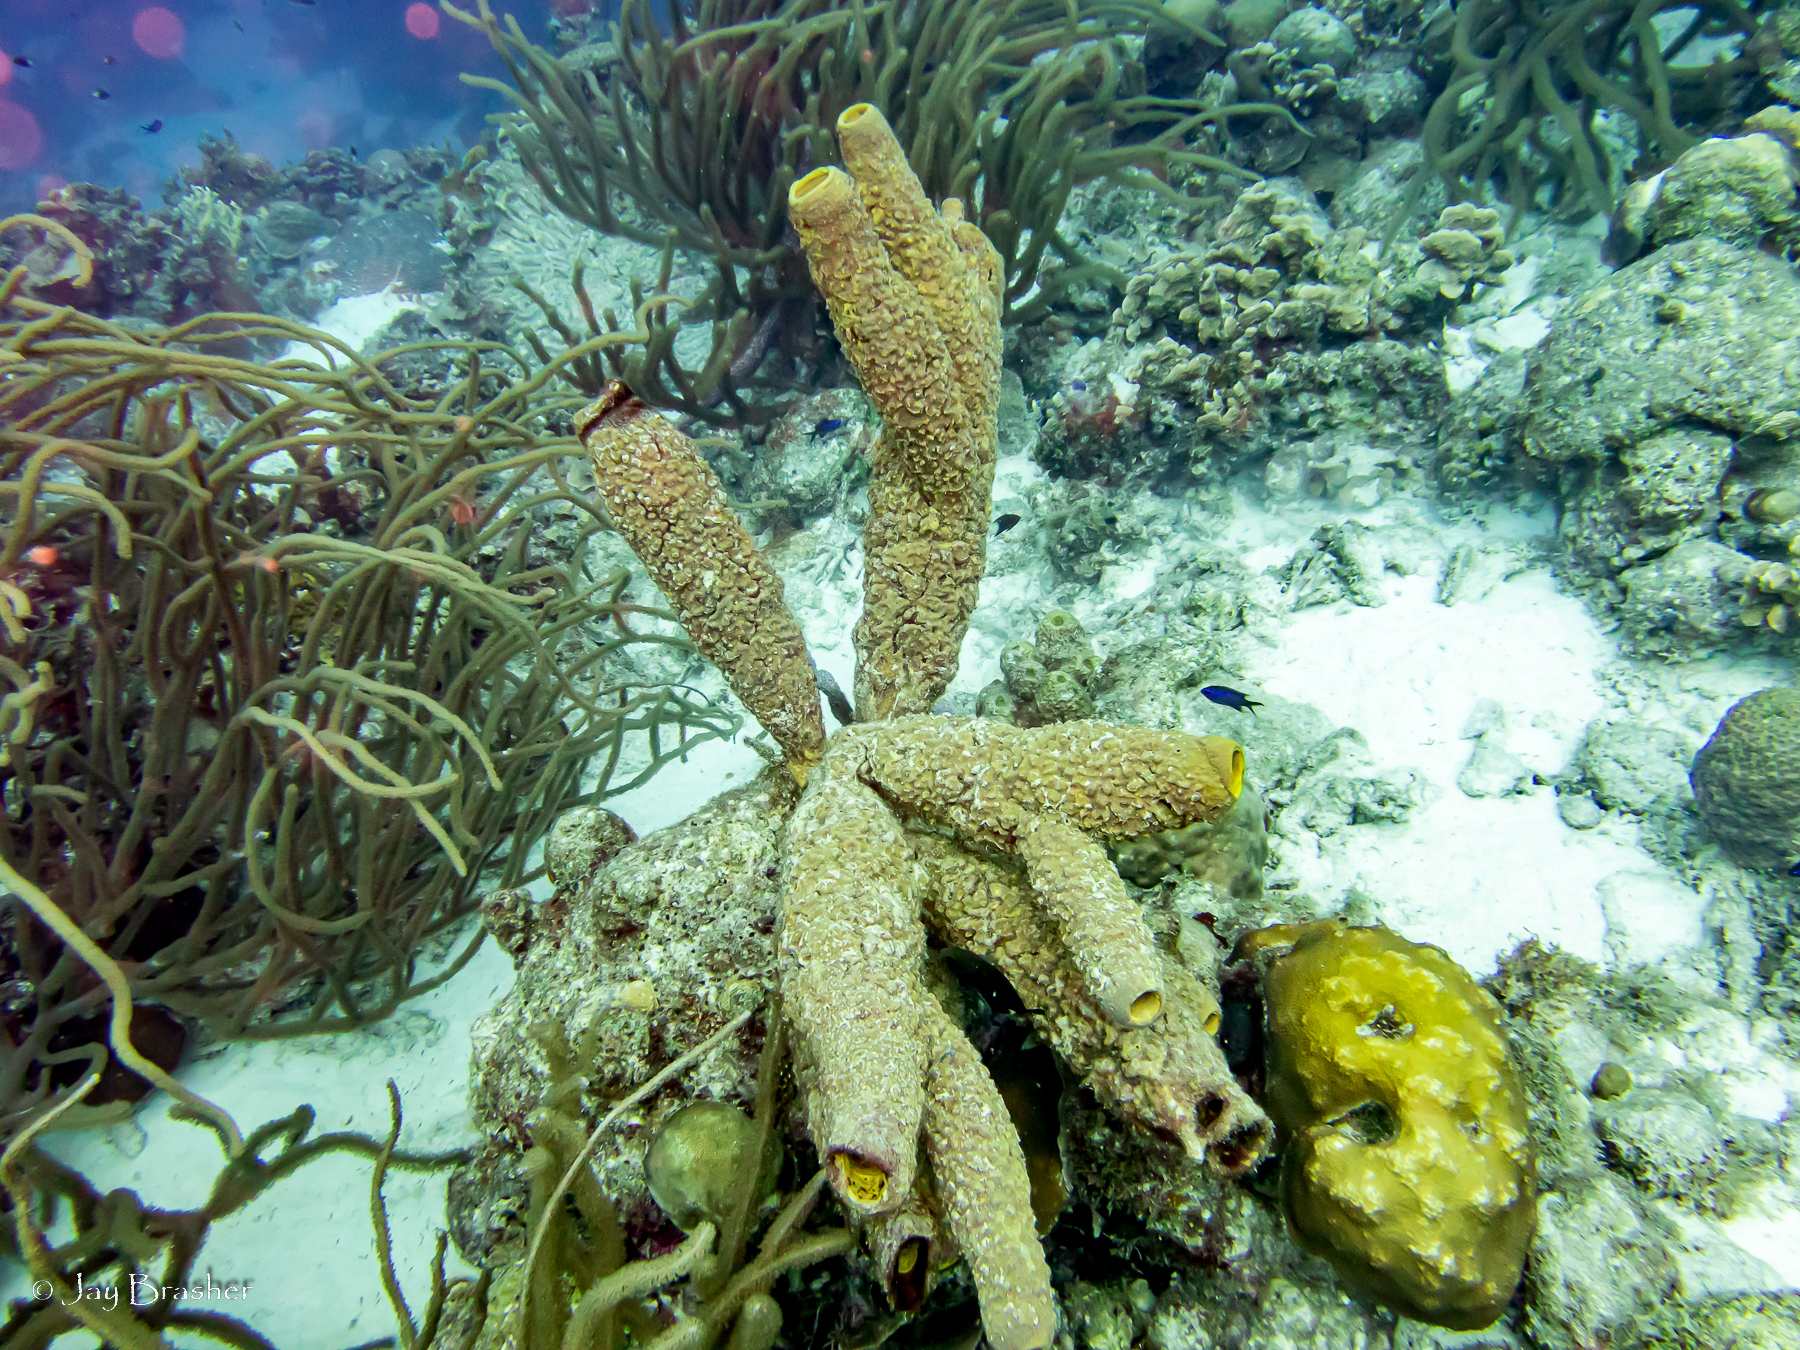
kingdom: Animalia
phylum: Porifera
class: Demospongiae
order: Verongiida
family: Aplysinidae
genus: Aplysina
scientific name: Aplysina archeri
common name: Stove-pipe sponge
